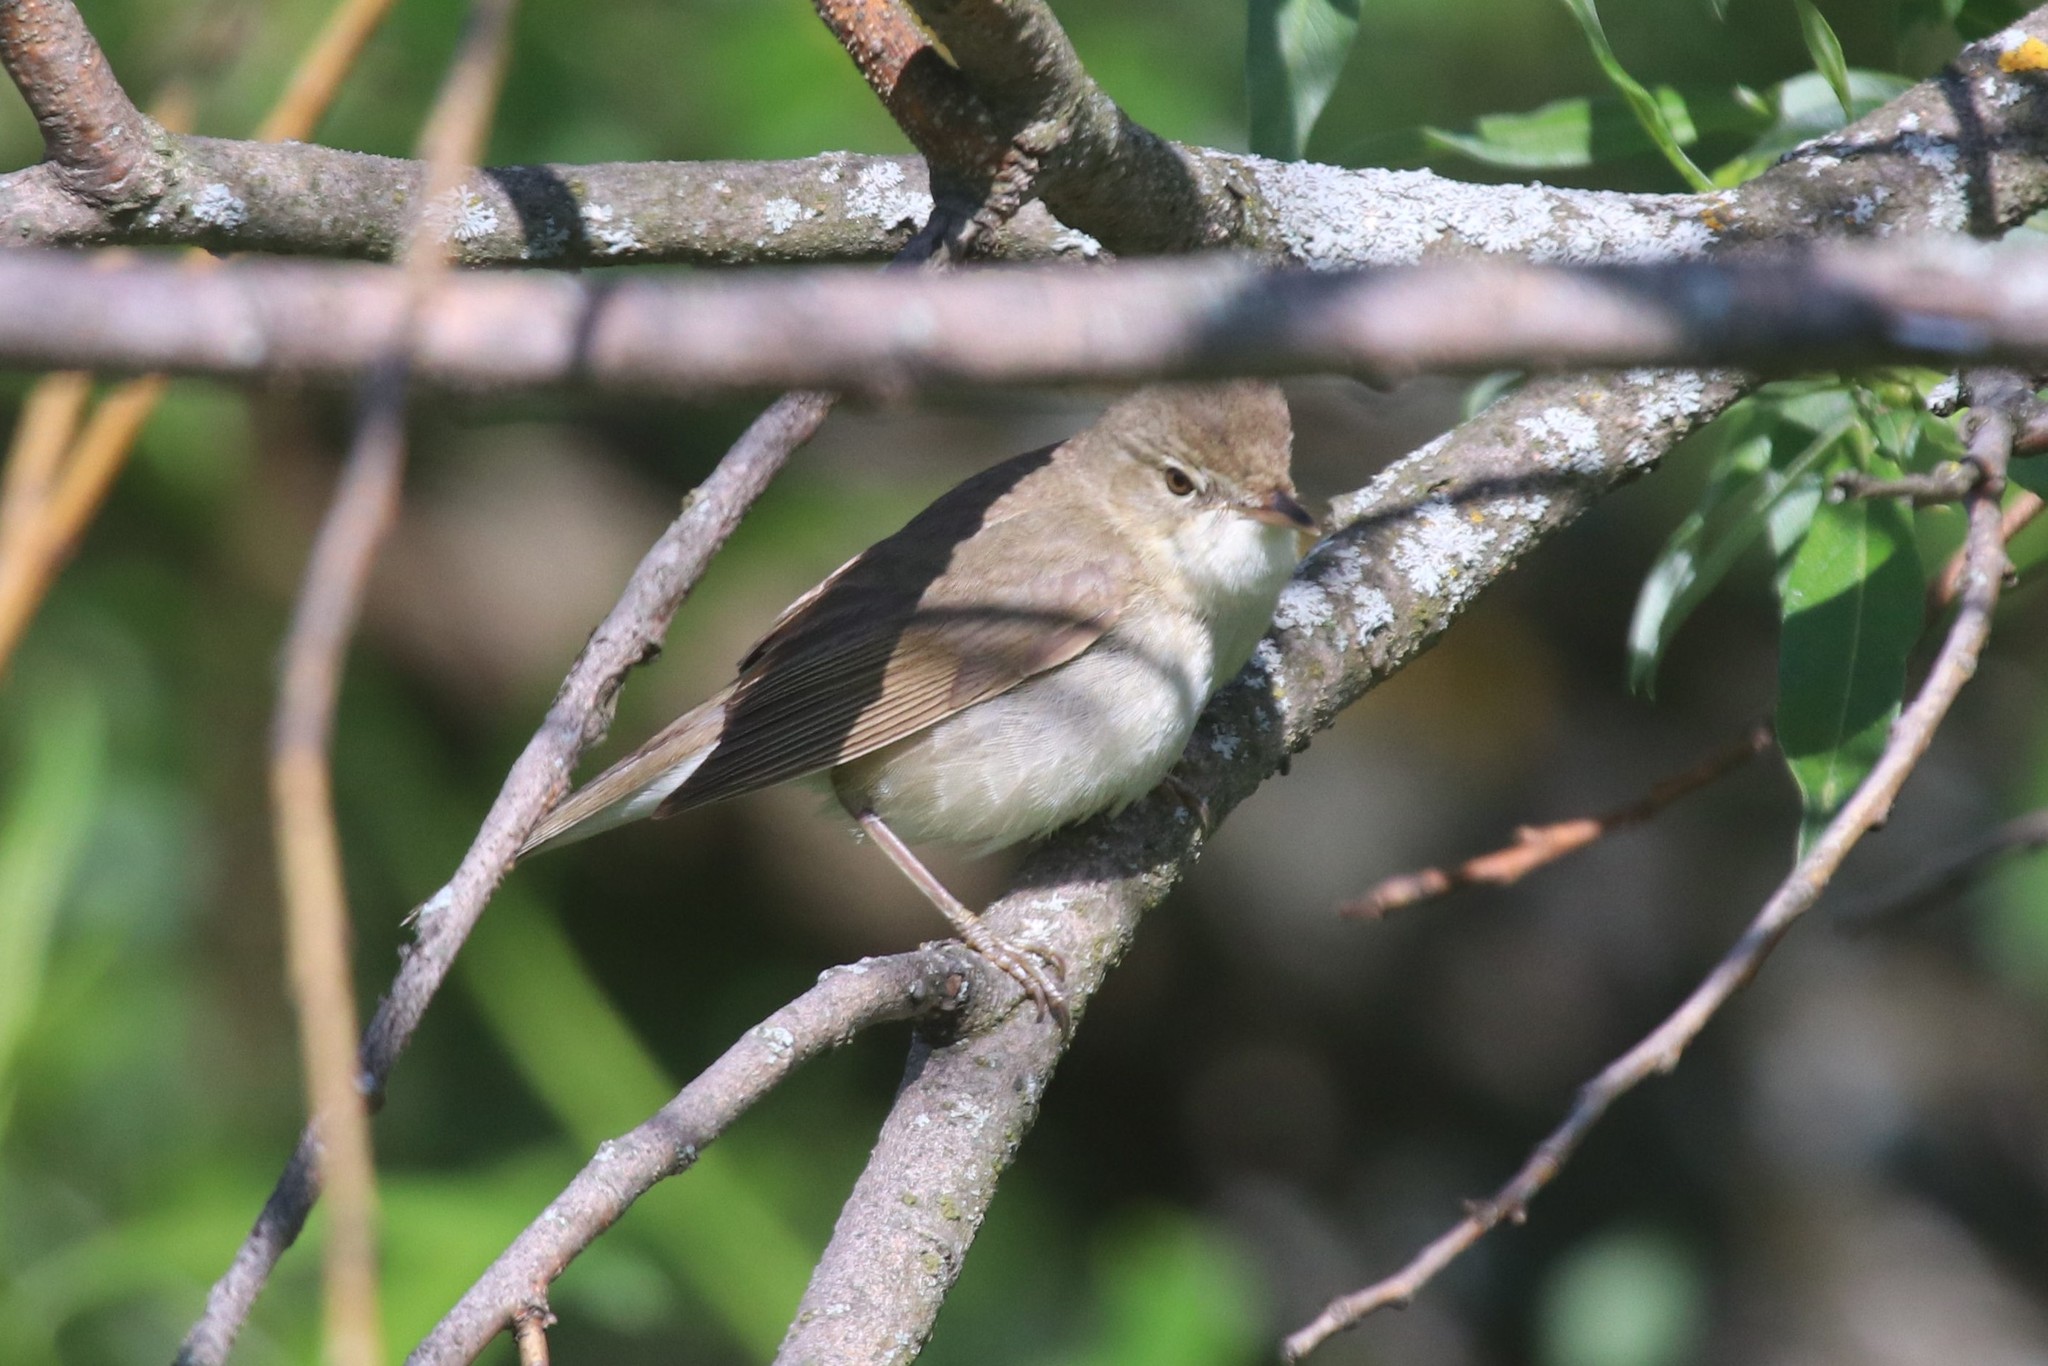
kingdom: Animalia
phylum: Chordata
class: Aves
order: Passeriformes
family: Acrocephalidae
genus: Acrocephalus
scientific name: Acrocephalus dumetorum
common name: Blyth's reed warbler
